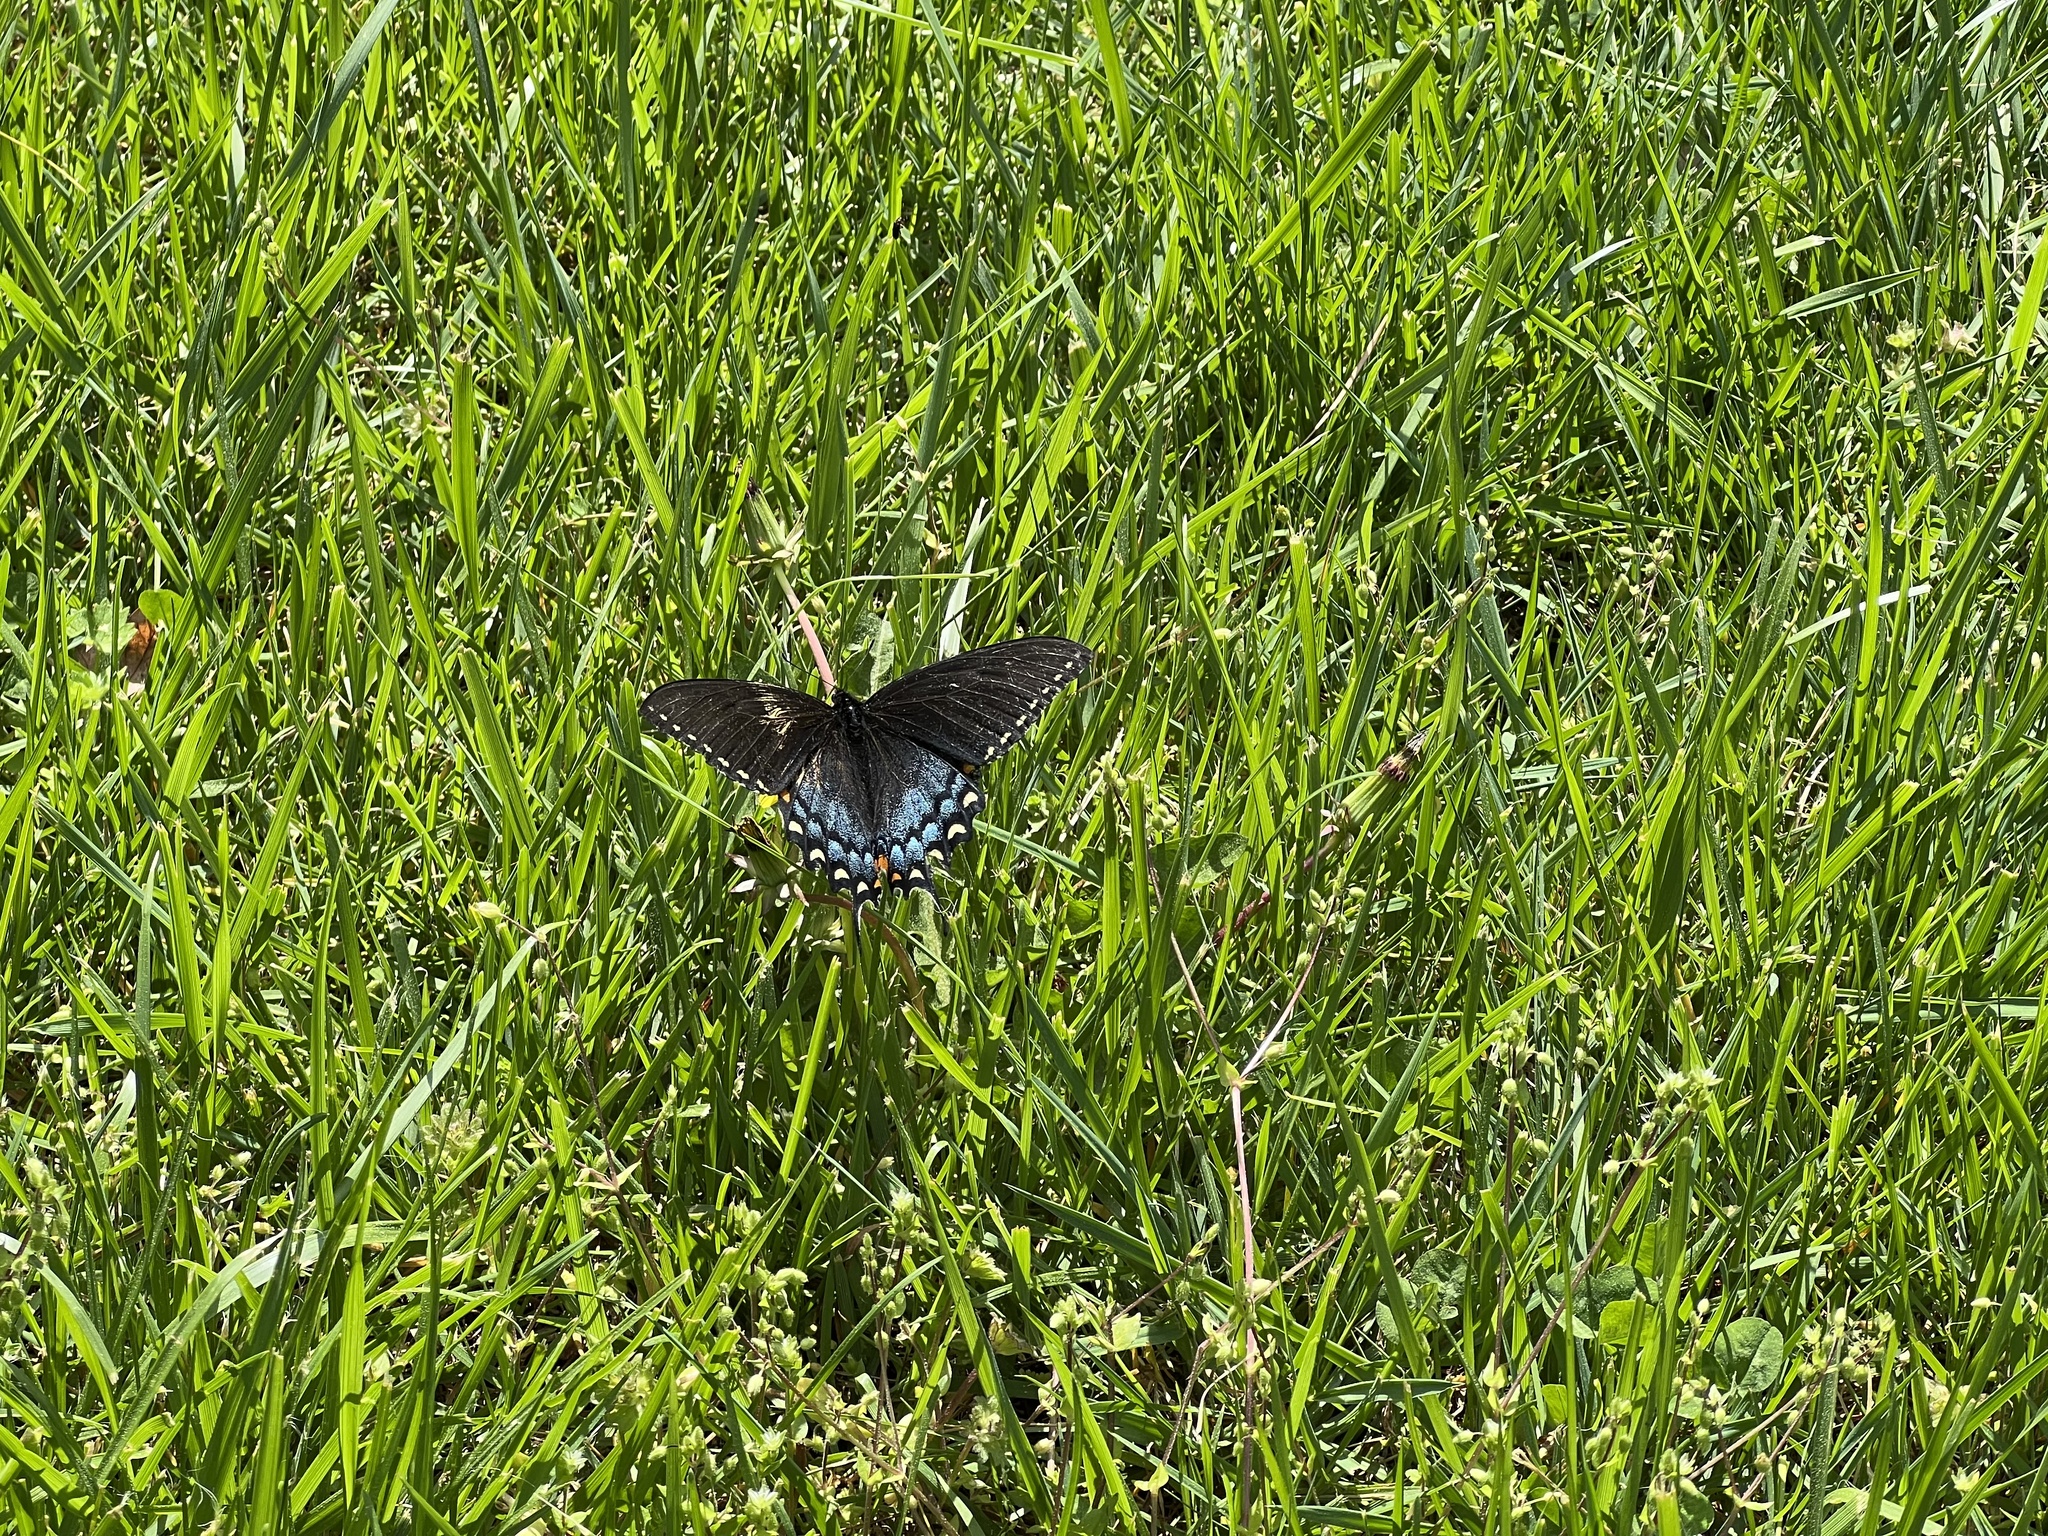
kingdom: Animalia
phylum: Arthropoda
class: Insecta
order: Lepidoptera
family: Papilionidae
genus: Papilio
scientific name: Papilio glaucus
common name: Tiger swallowtail
